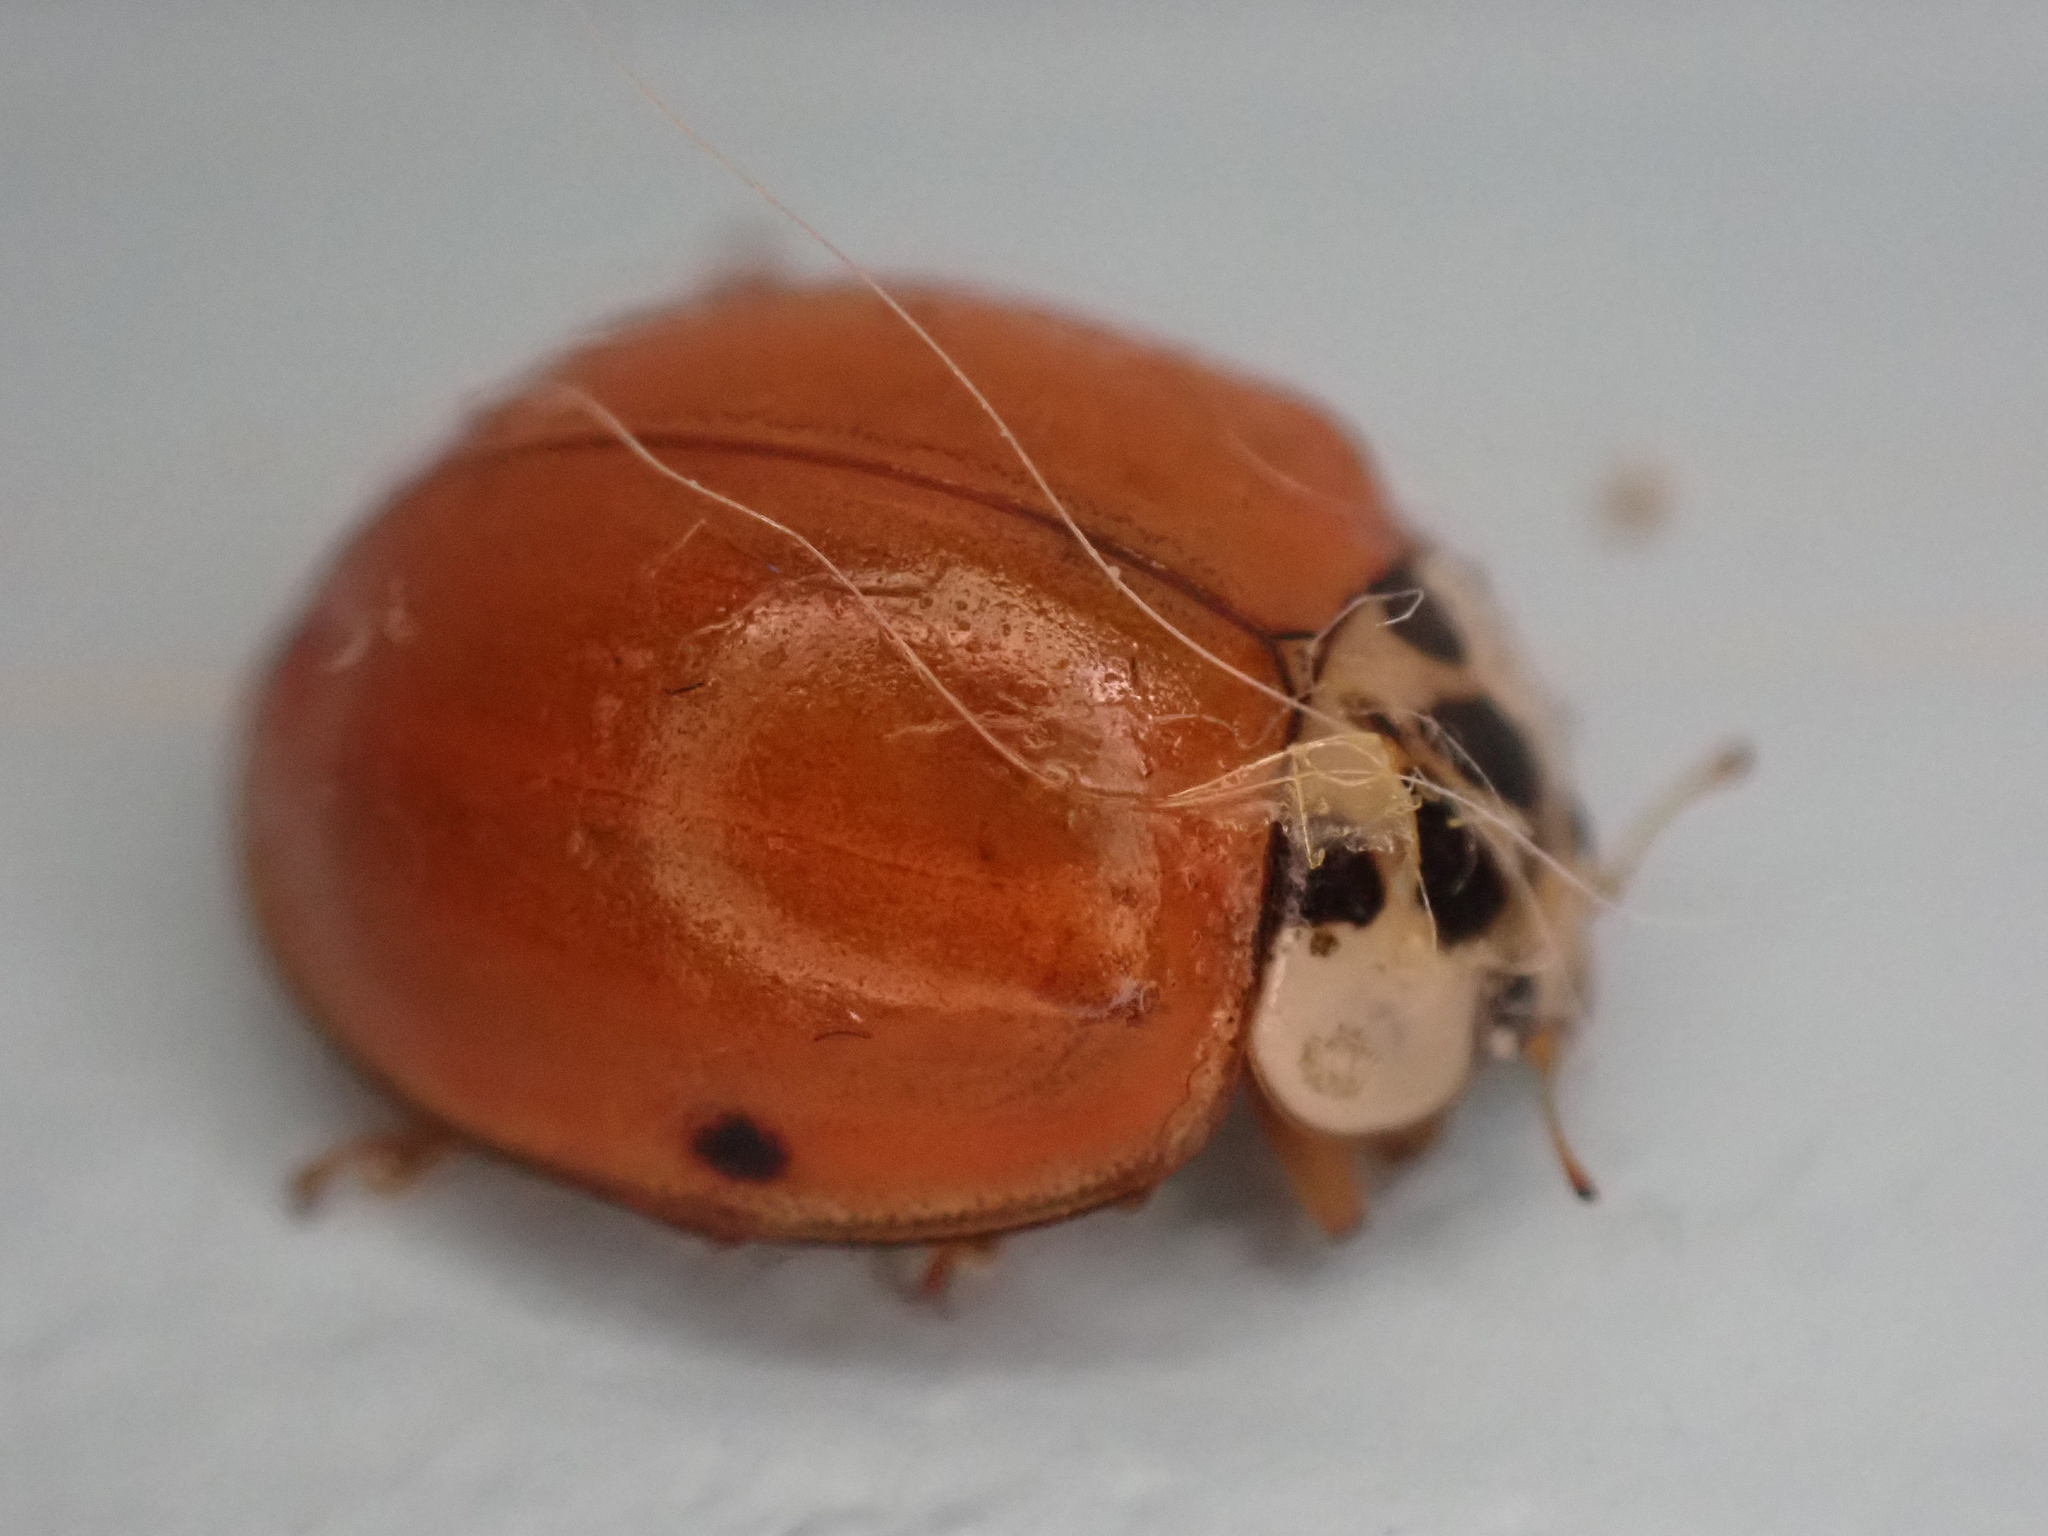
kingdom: Animalia
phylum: Arthropoda
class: Insecta
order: Coleoptera
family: Coccinellidae
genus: Harmonia
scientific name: Harmonia axyridis
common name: Harlequin ladybird
